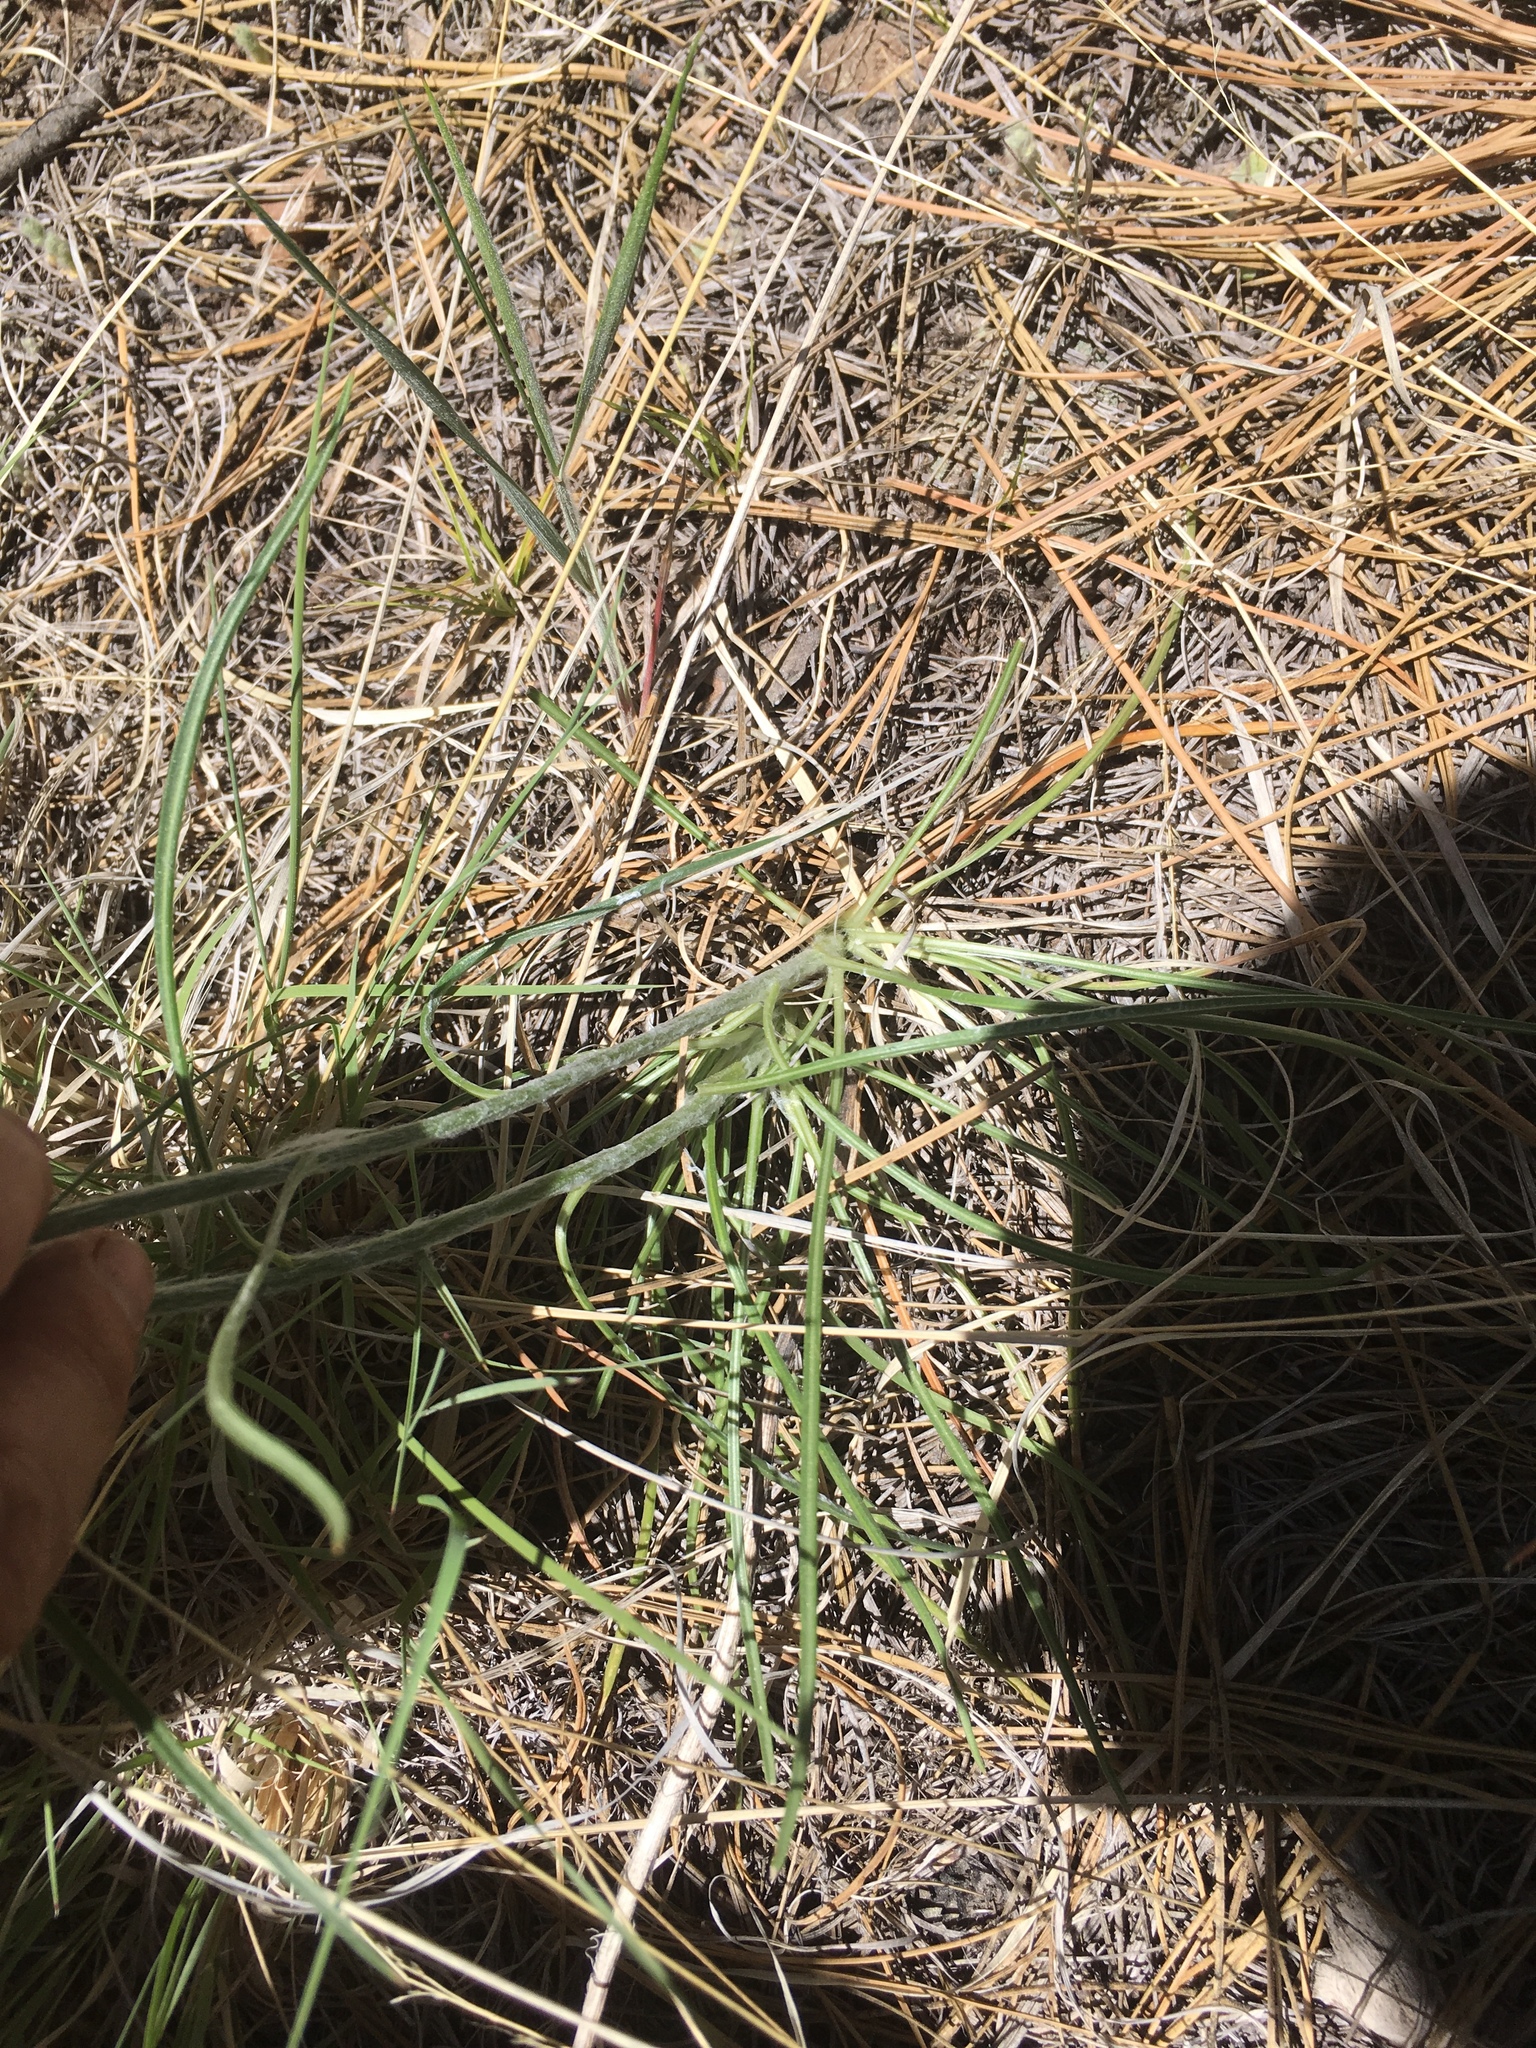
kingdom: Plantae
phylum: Tracheophyta
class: Magnoliopsida
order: Asterales
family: Asteraceae
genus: Hymenoxys
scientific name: Hymenoxys bigelovii
